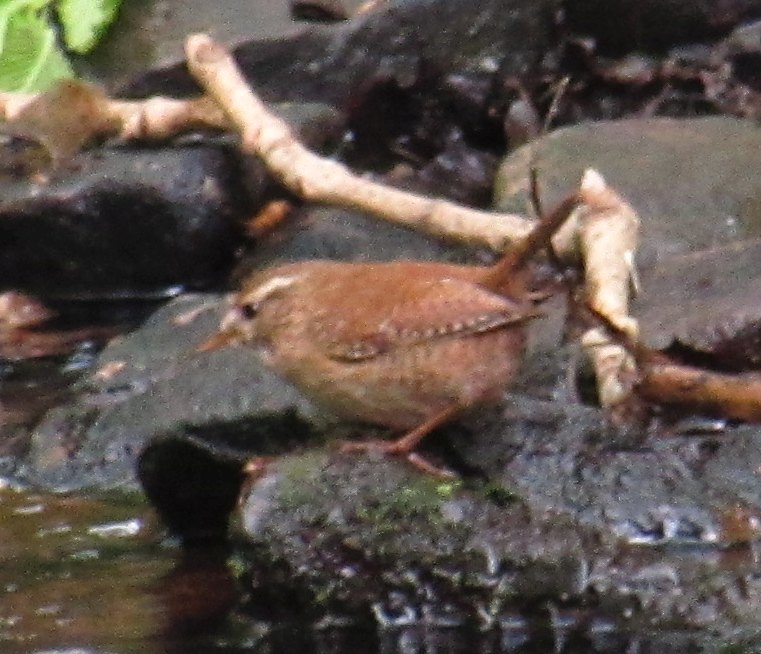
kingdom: Animalia
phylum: Chordata
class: Aves
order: Passeriformes
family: Troglodytidae
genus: Troglodytes
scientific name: Troglodytes troglodytes
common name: Eurasian wren
